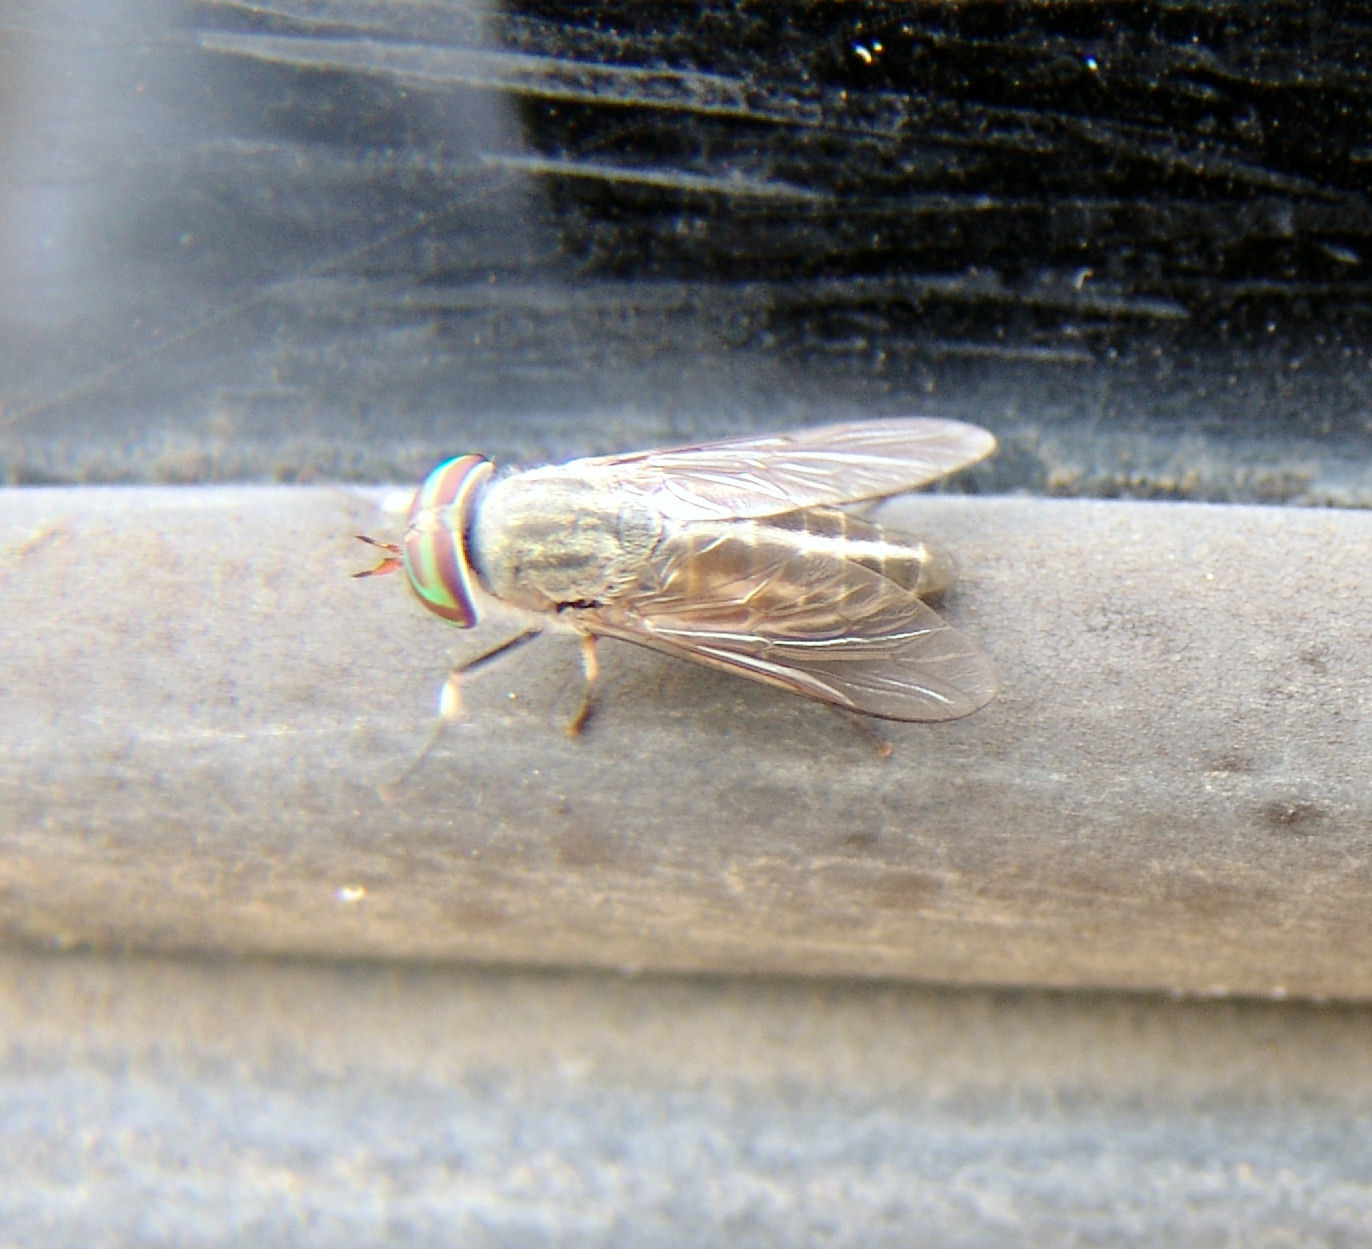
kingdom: Animalia
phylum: Arthropoda
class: Insecta
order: Diptera
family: Tabanidae
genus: Tabanus
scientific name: Tabanus lineola
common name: Striped horse fly
